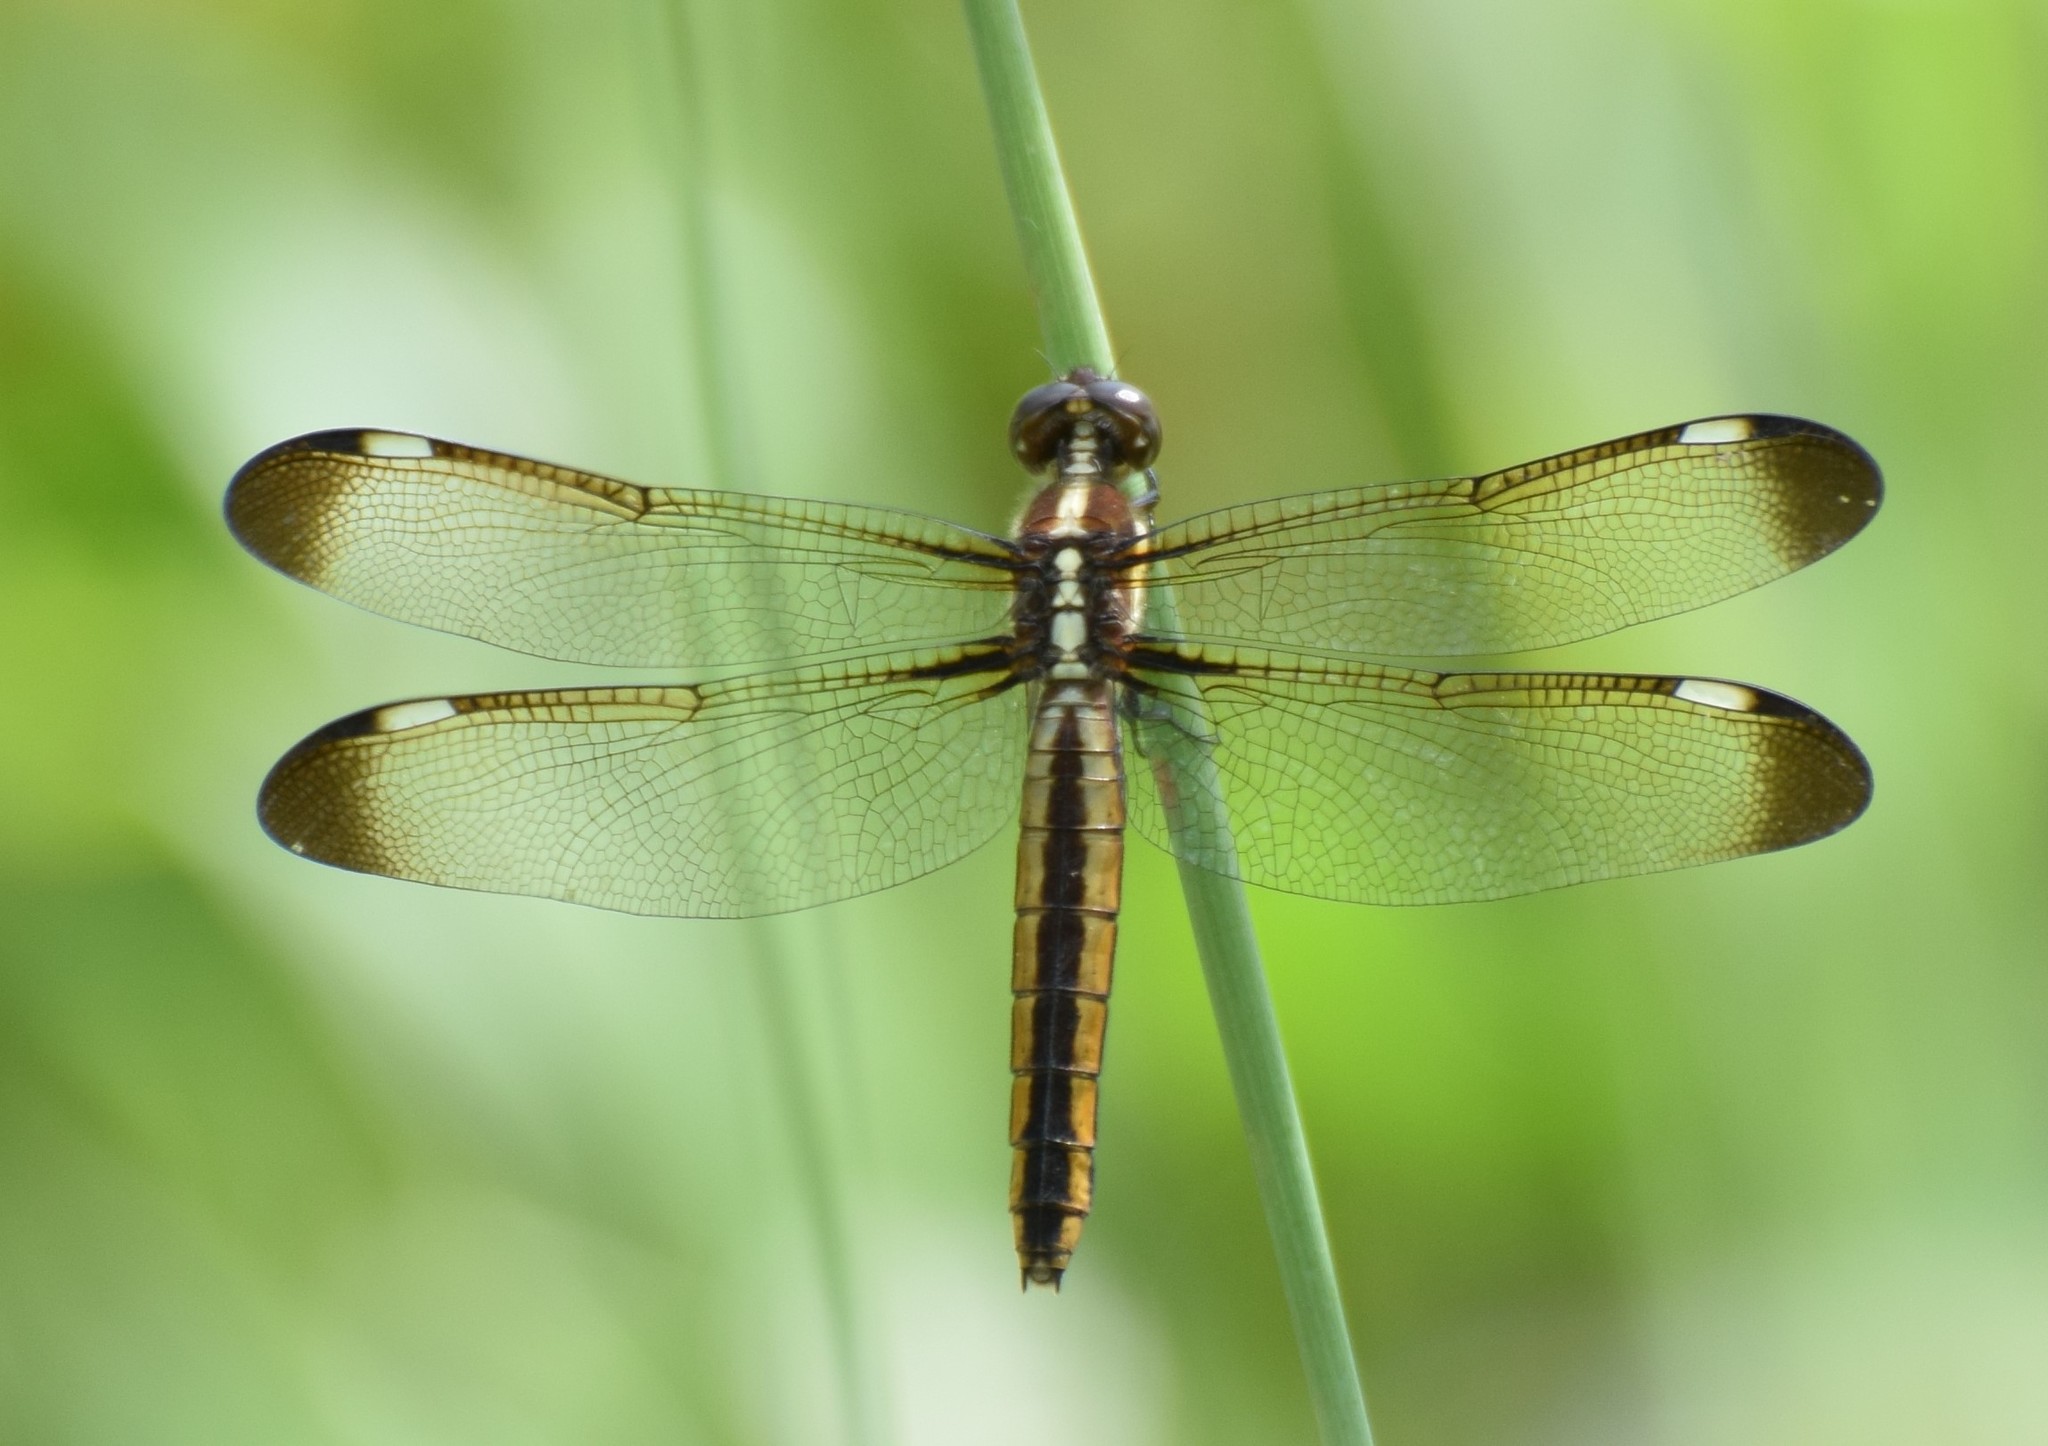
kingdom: Animalia
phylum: Arthropoda
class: Insecta
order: Odonata
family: Libellulidae
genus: Libellula
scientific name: Libellula cyanea
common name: Spangled skimmer
